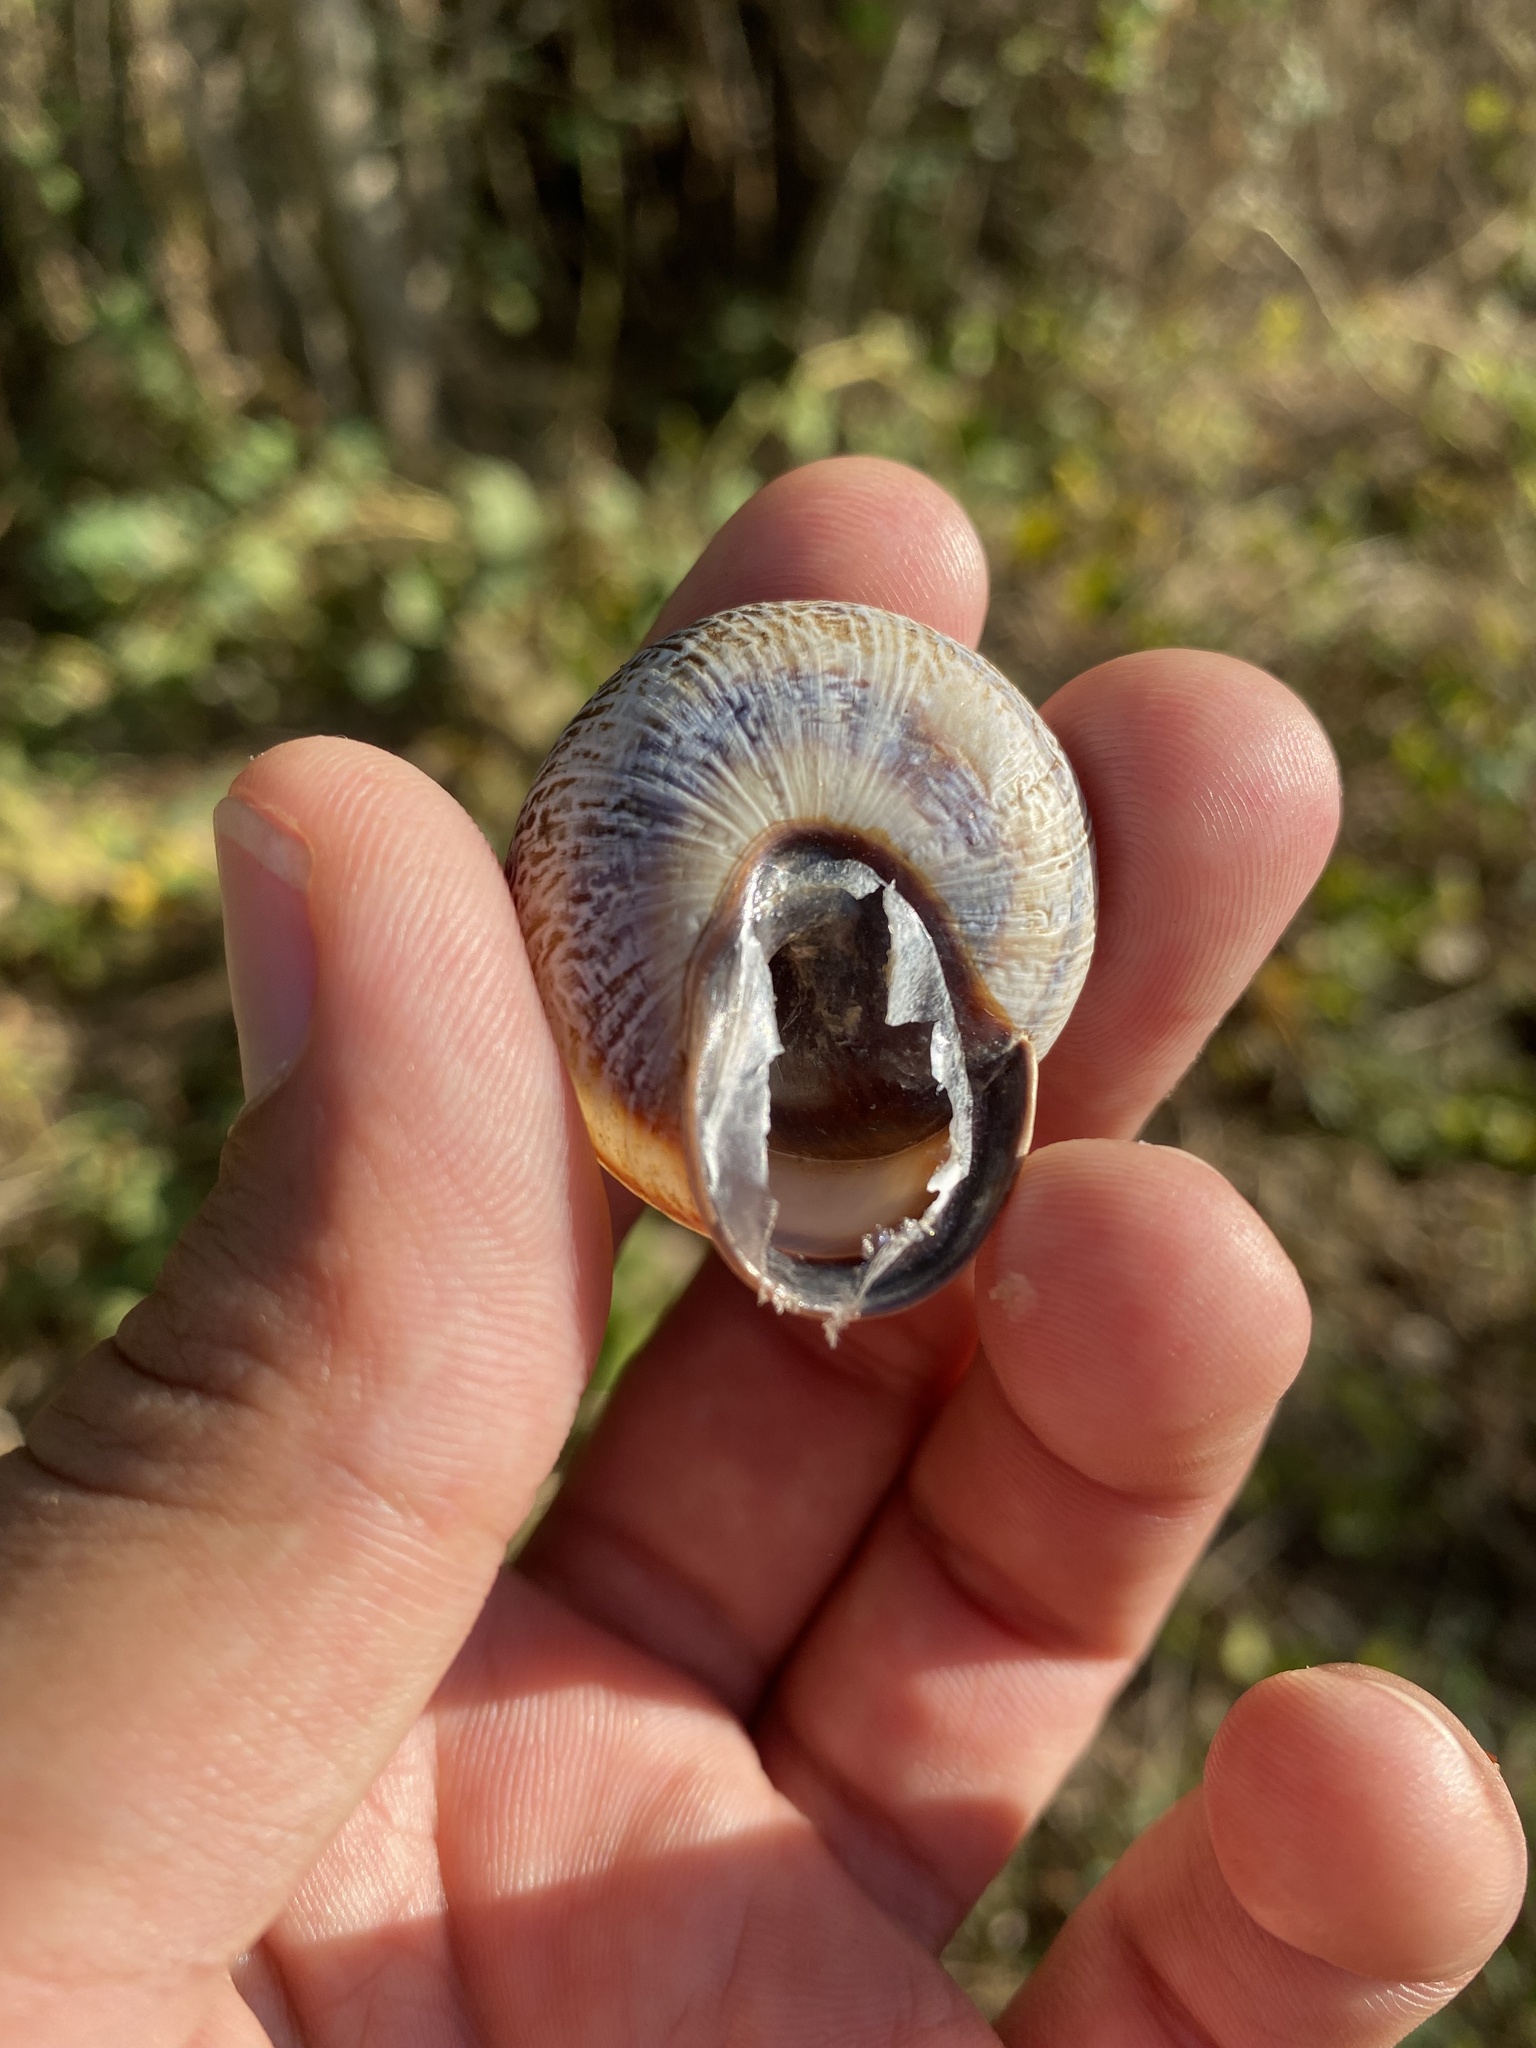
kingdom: Animalia
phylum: Mollusca
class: Gastropoda
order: Stylommatophora
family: Helicidae
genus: Caucasotachea
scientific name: Caucasotachea atrolabiata
